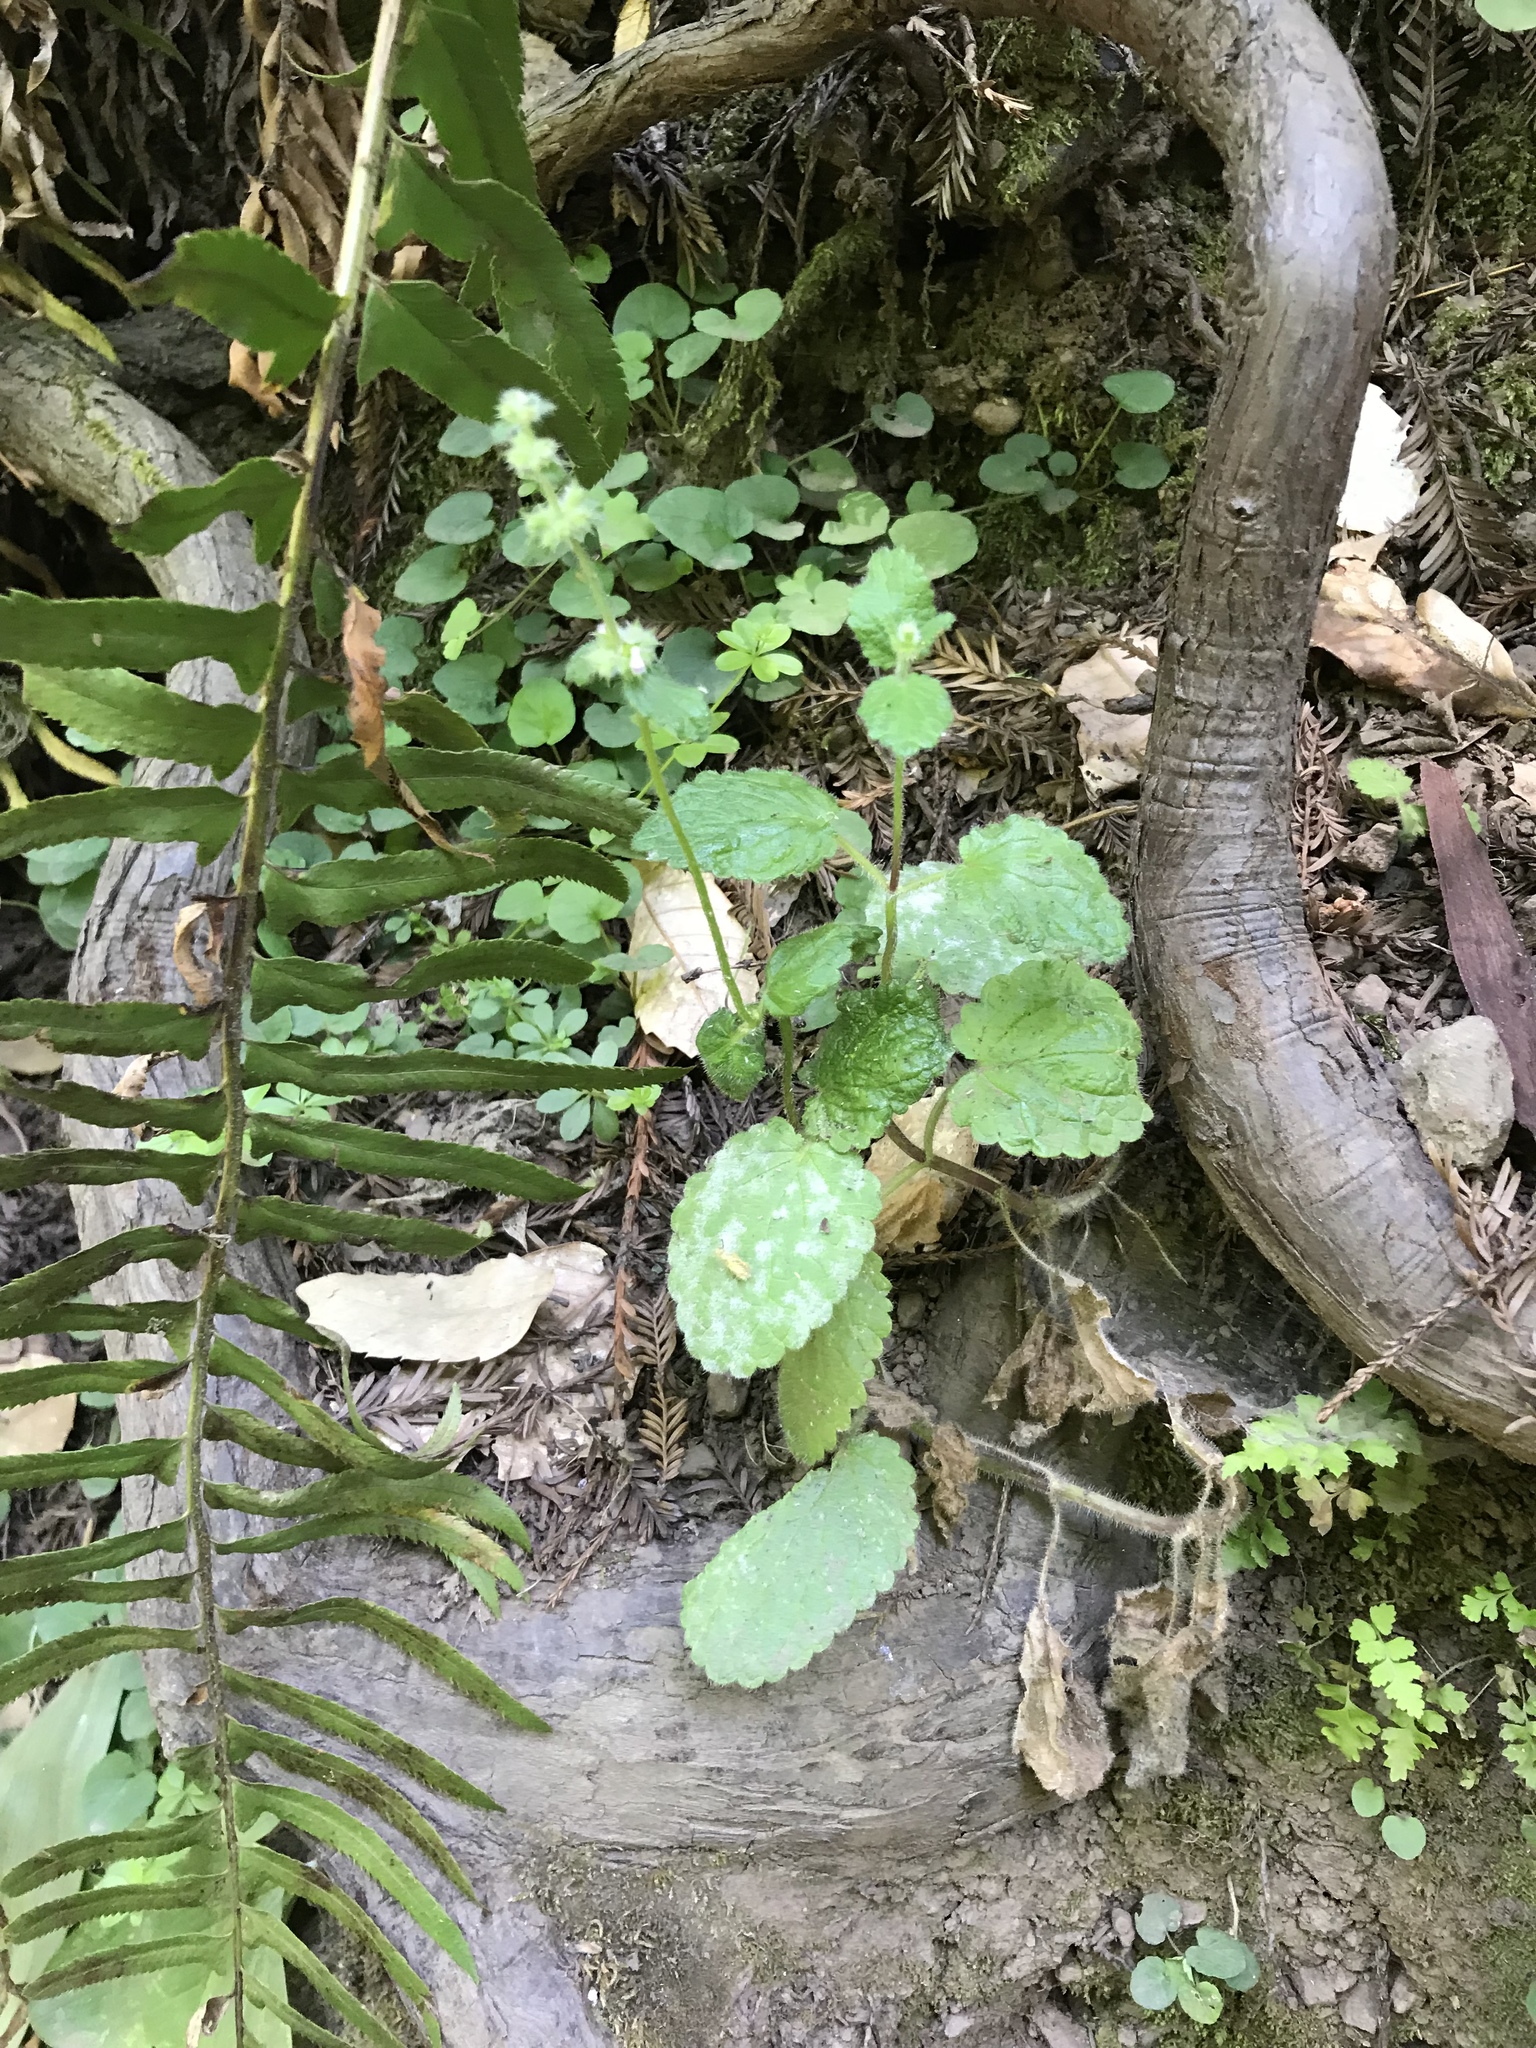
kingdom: Plantae
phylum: Tracheophyta
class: Magnoliopsida
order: Lamiales
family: Lamiaceae
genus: Stachys
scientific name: Stachys
